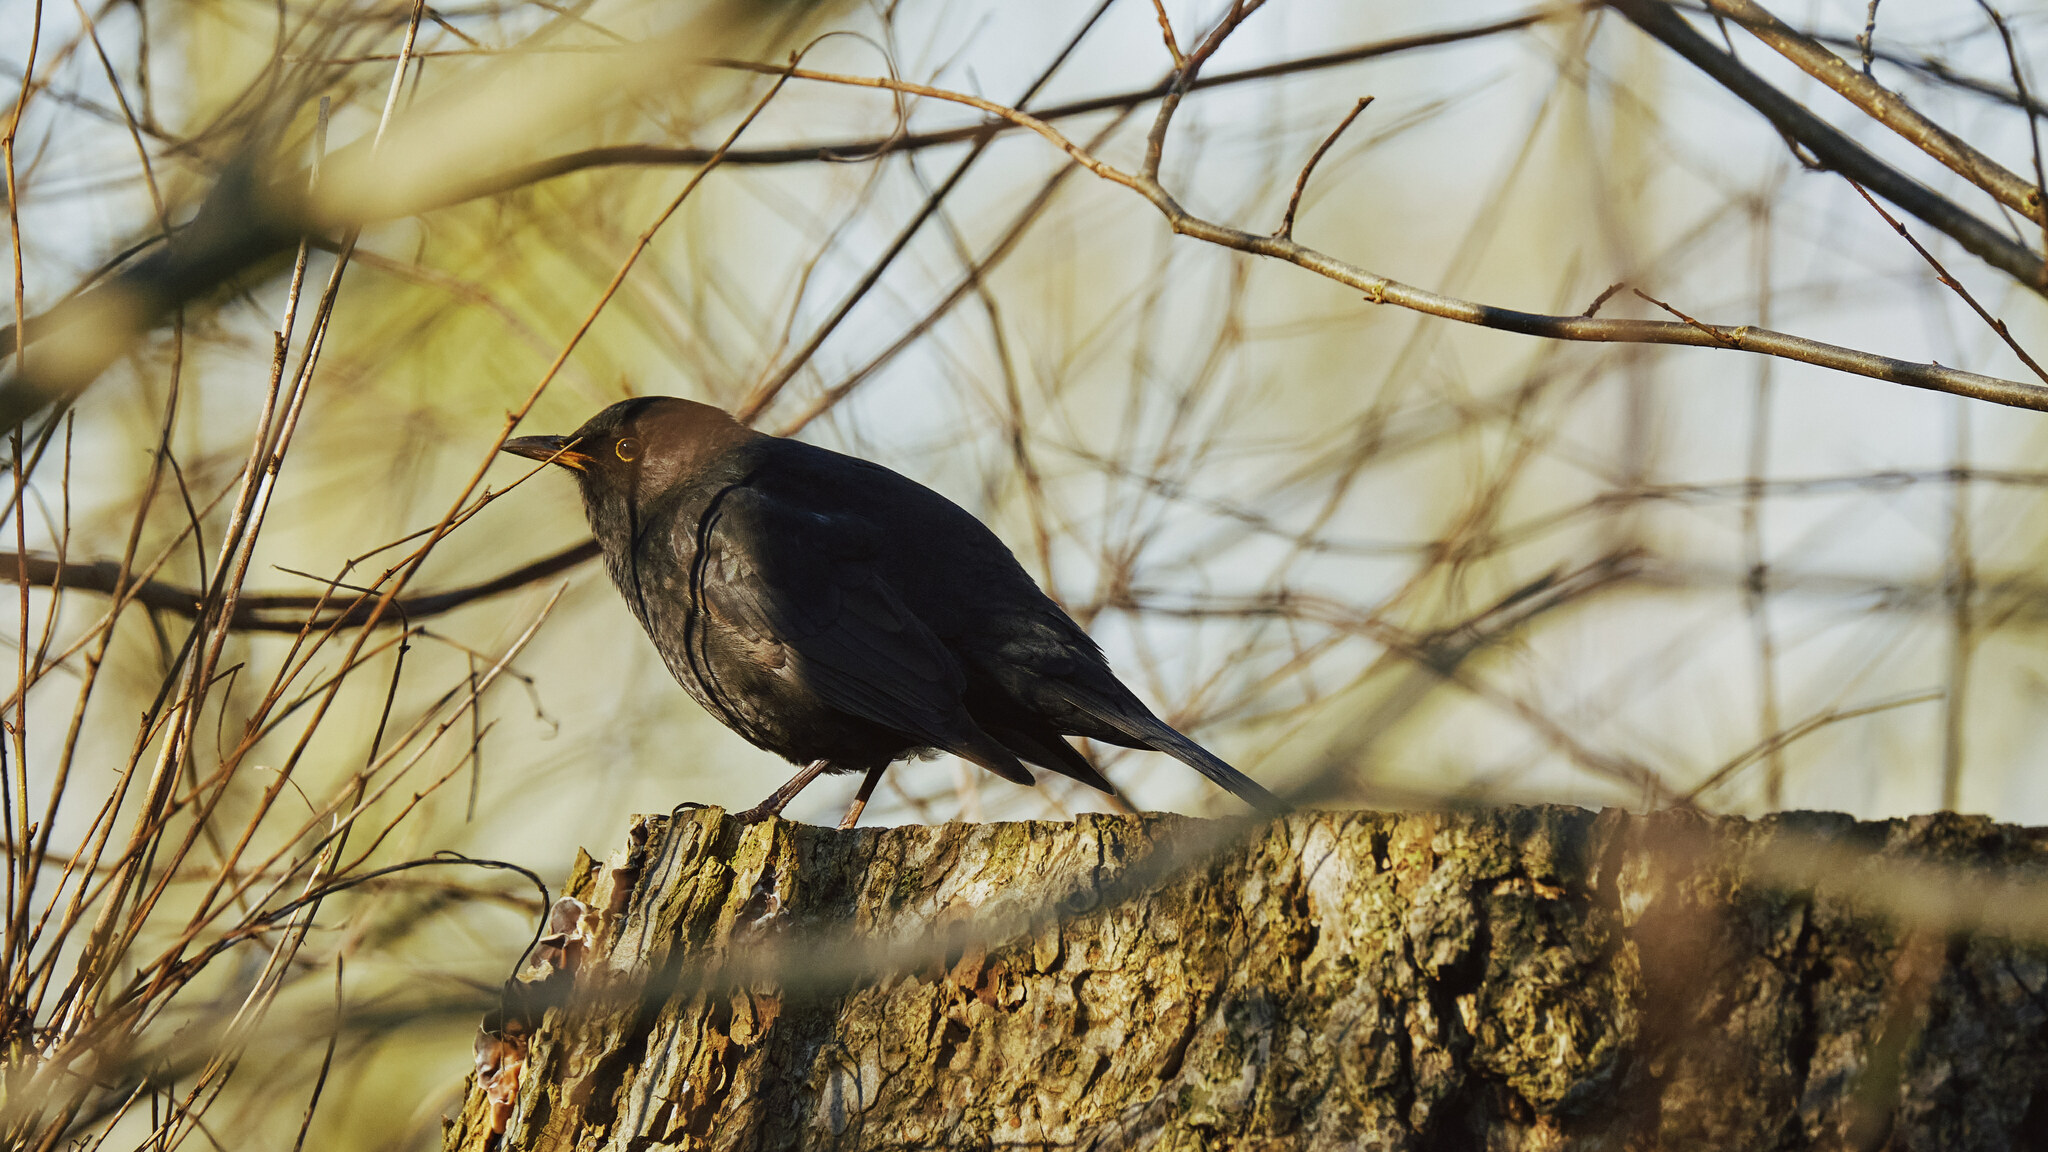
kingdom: Animalia
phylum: Chordata
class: Aves
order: Passeriformes
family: Turdidae
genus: Turdus
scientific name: Turdus merula
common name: Common blackbird
